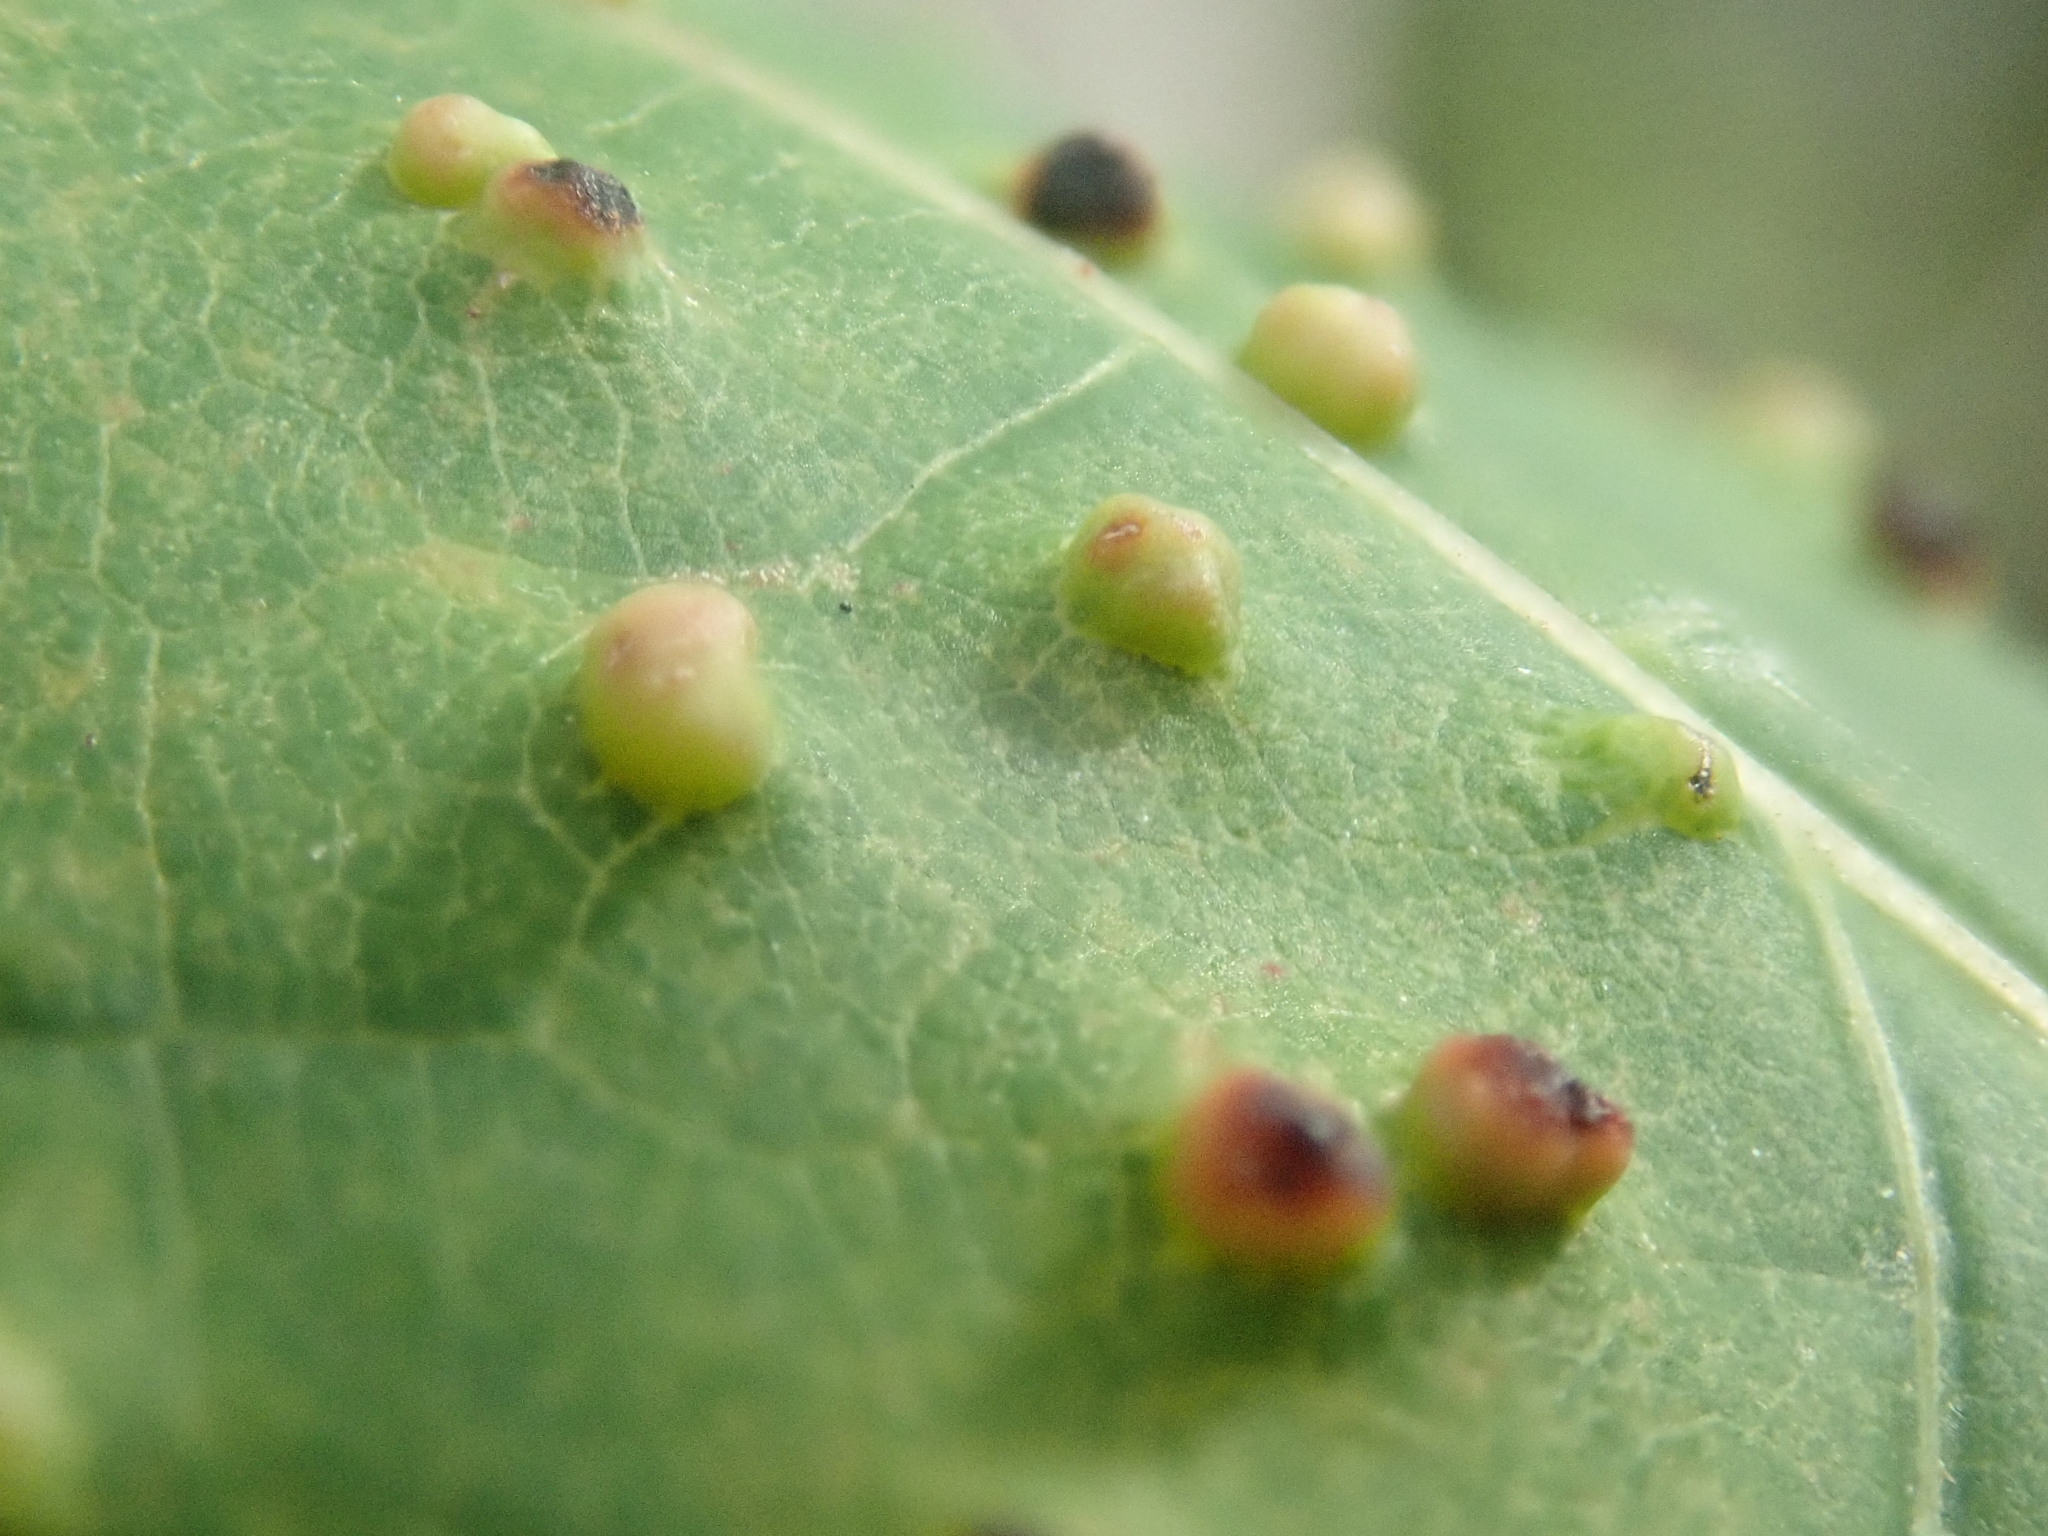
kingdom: Animalia
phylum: Arthropoda
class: Arachnida
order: Trombidiformes
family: Eriophyidae
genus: Vasates
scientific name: Vasates quadripedes
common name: Maple bladder gall mite
